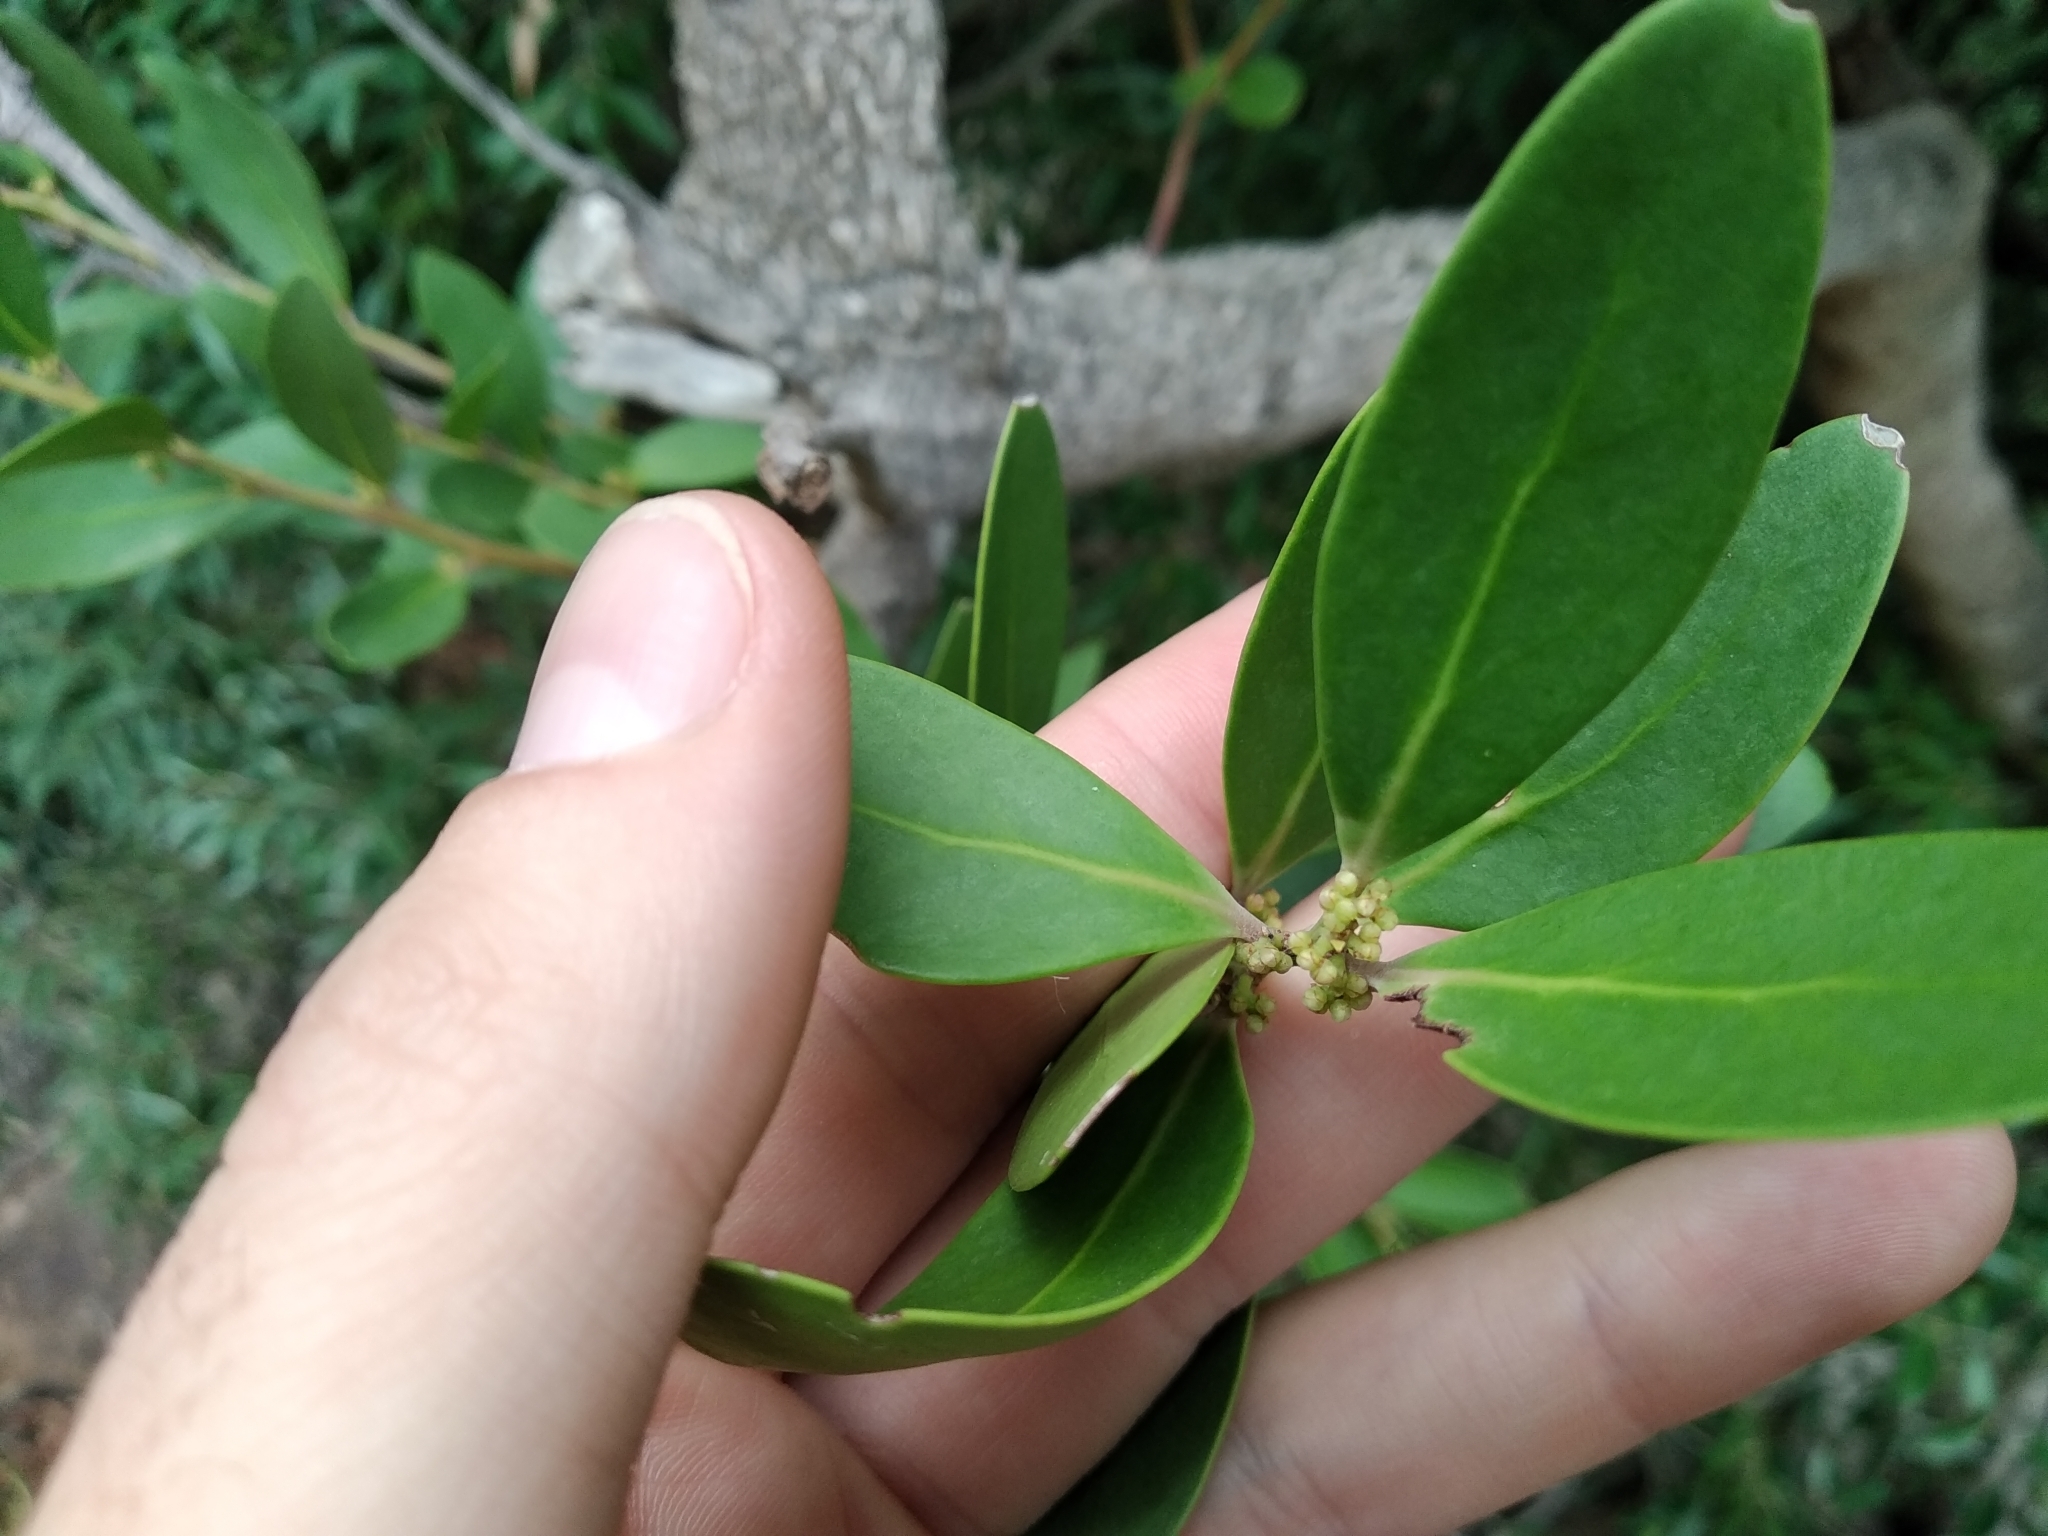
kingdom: Plantae
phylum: Tracheophyta
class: Magnoliopsida
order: Celastrales
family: Celastraceae
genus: Gymnosporia
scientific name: Gymnosporia laurina
